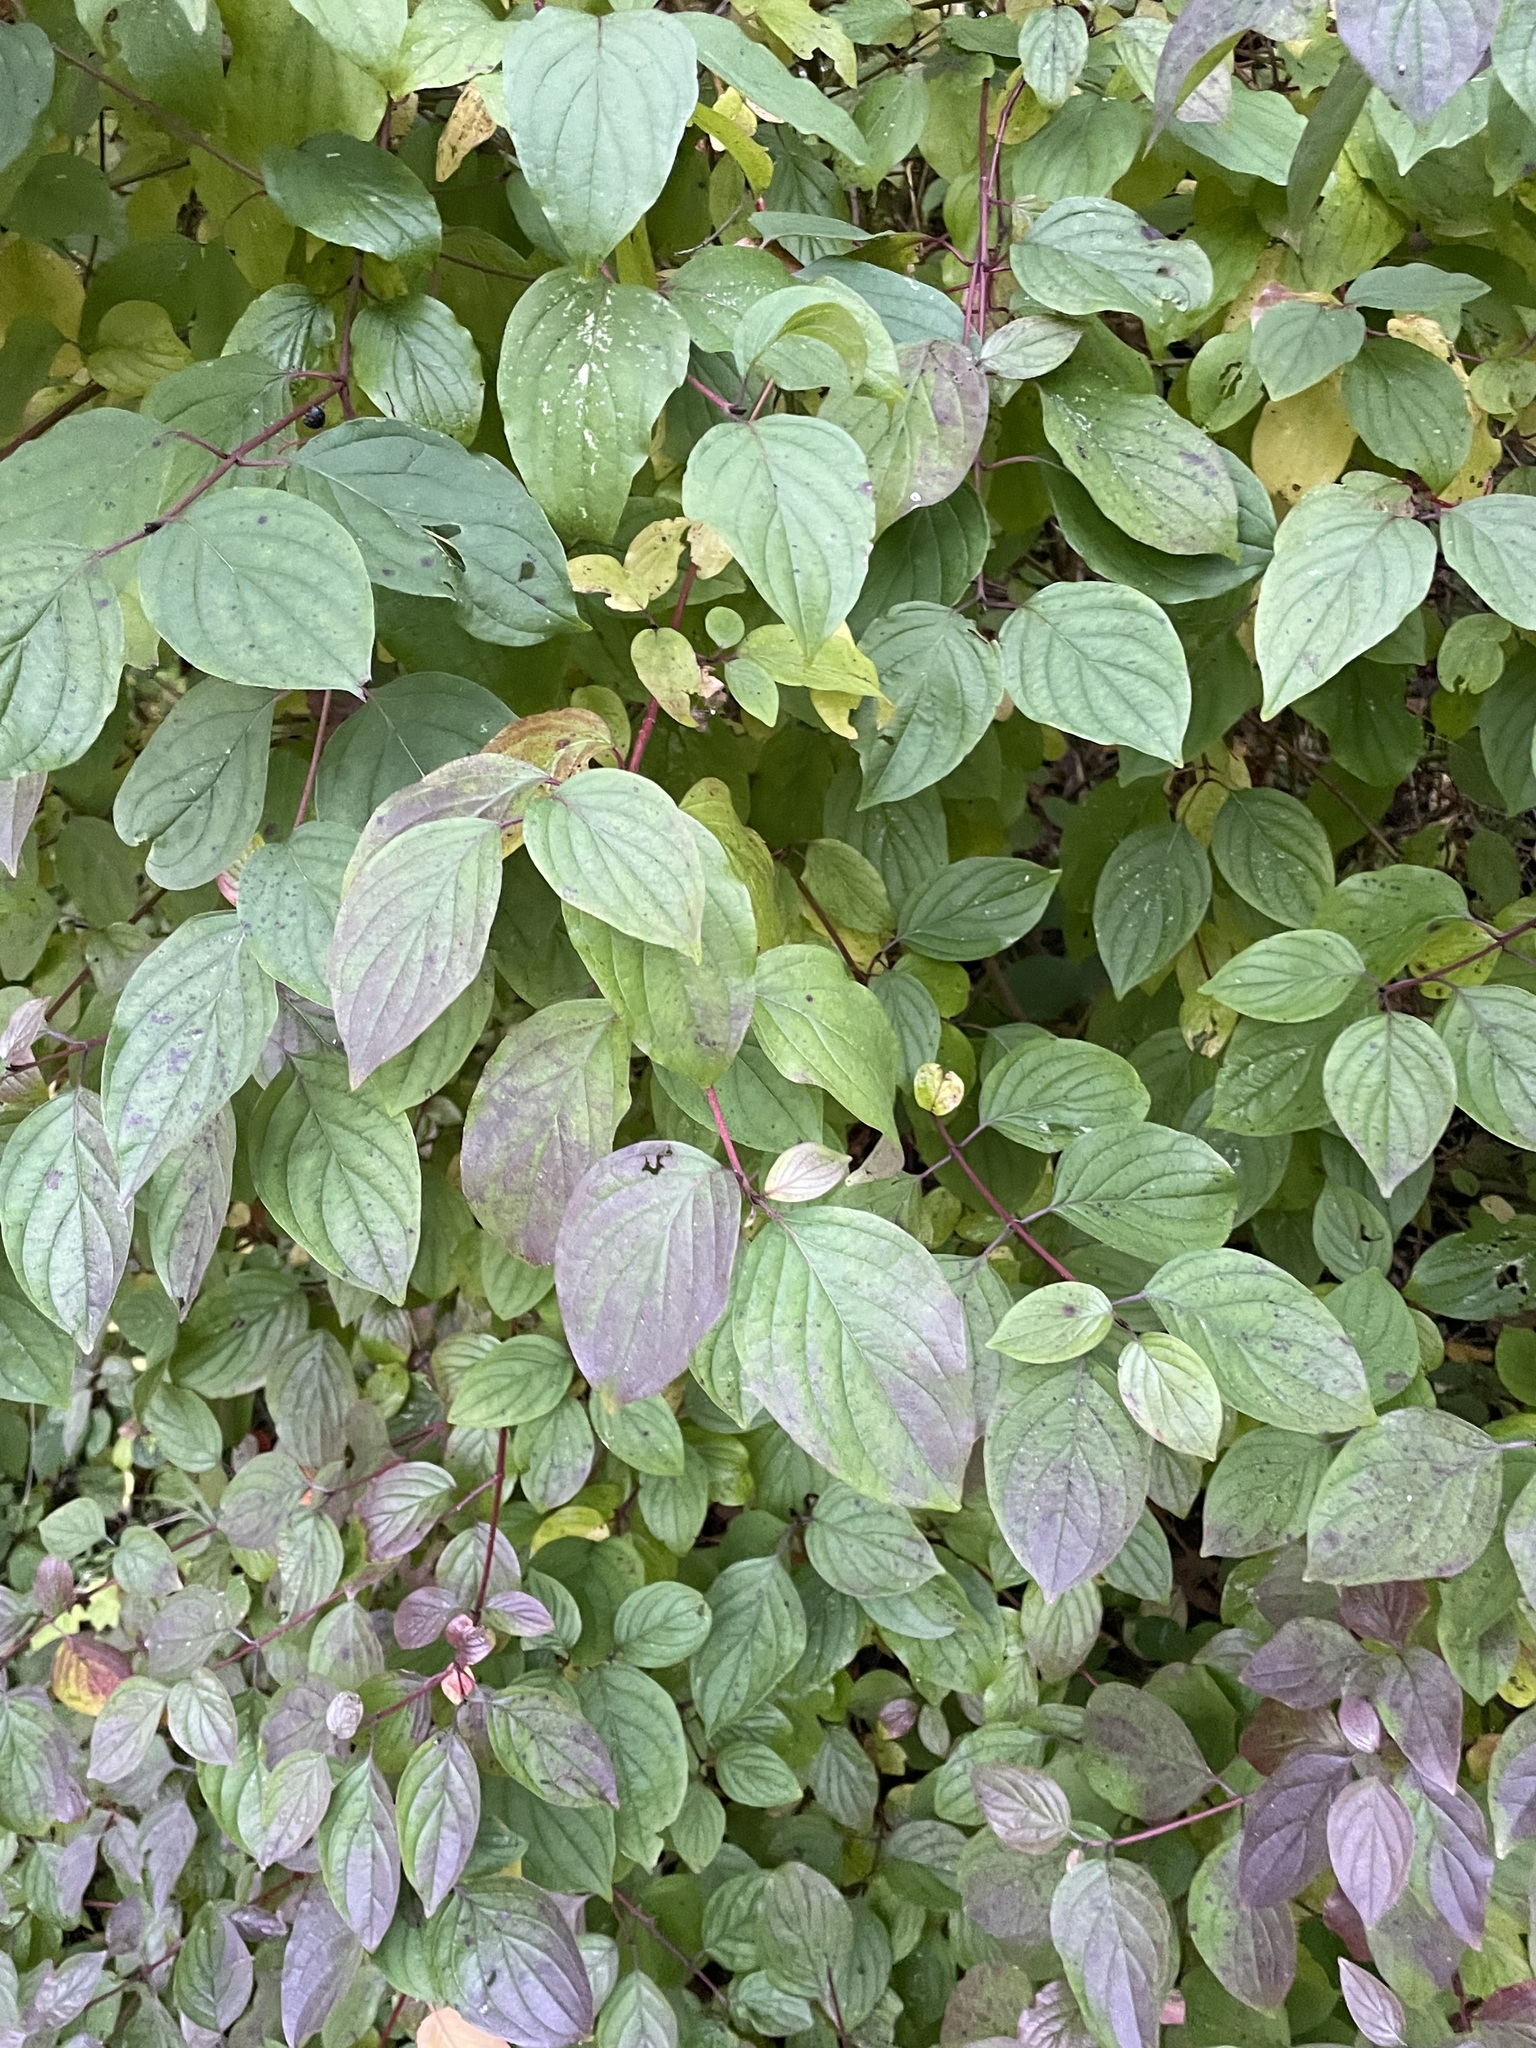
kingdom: Plantae
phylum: Tracheophyta
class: Magnoliopsida
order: Cornales
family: Cornaceae
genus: Cornus
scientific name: Cornus sanguinea
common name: Dogwood
